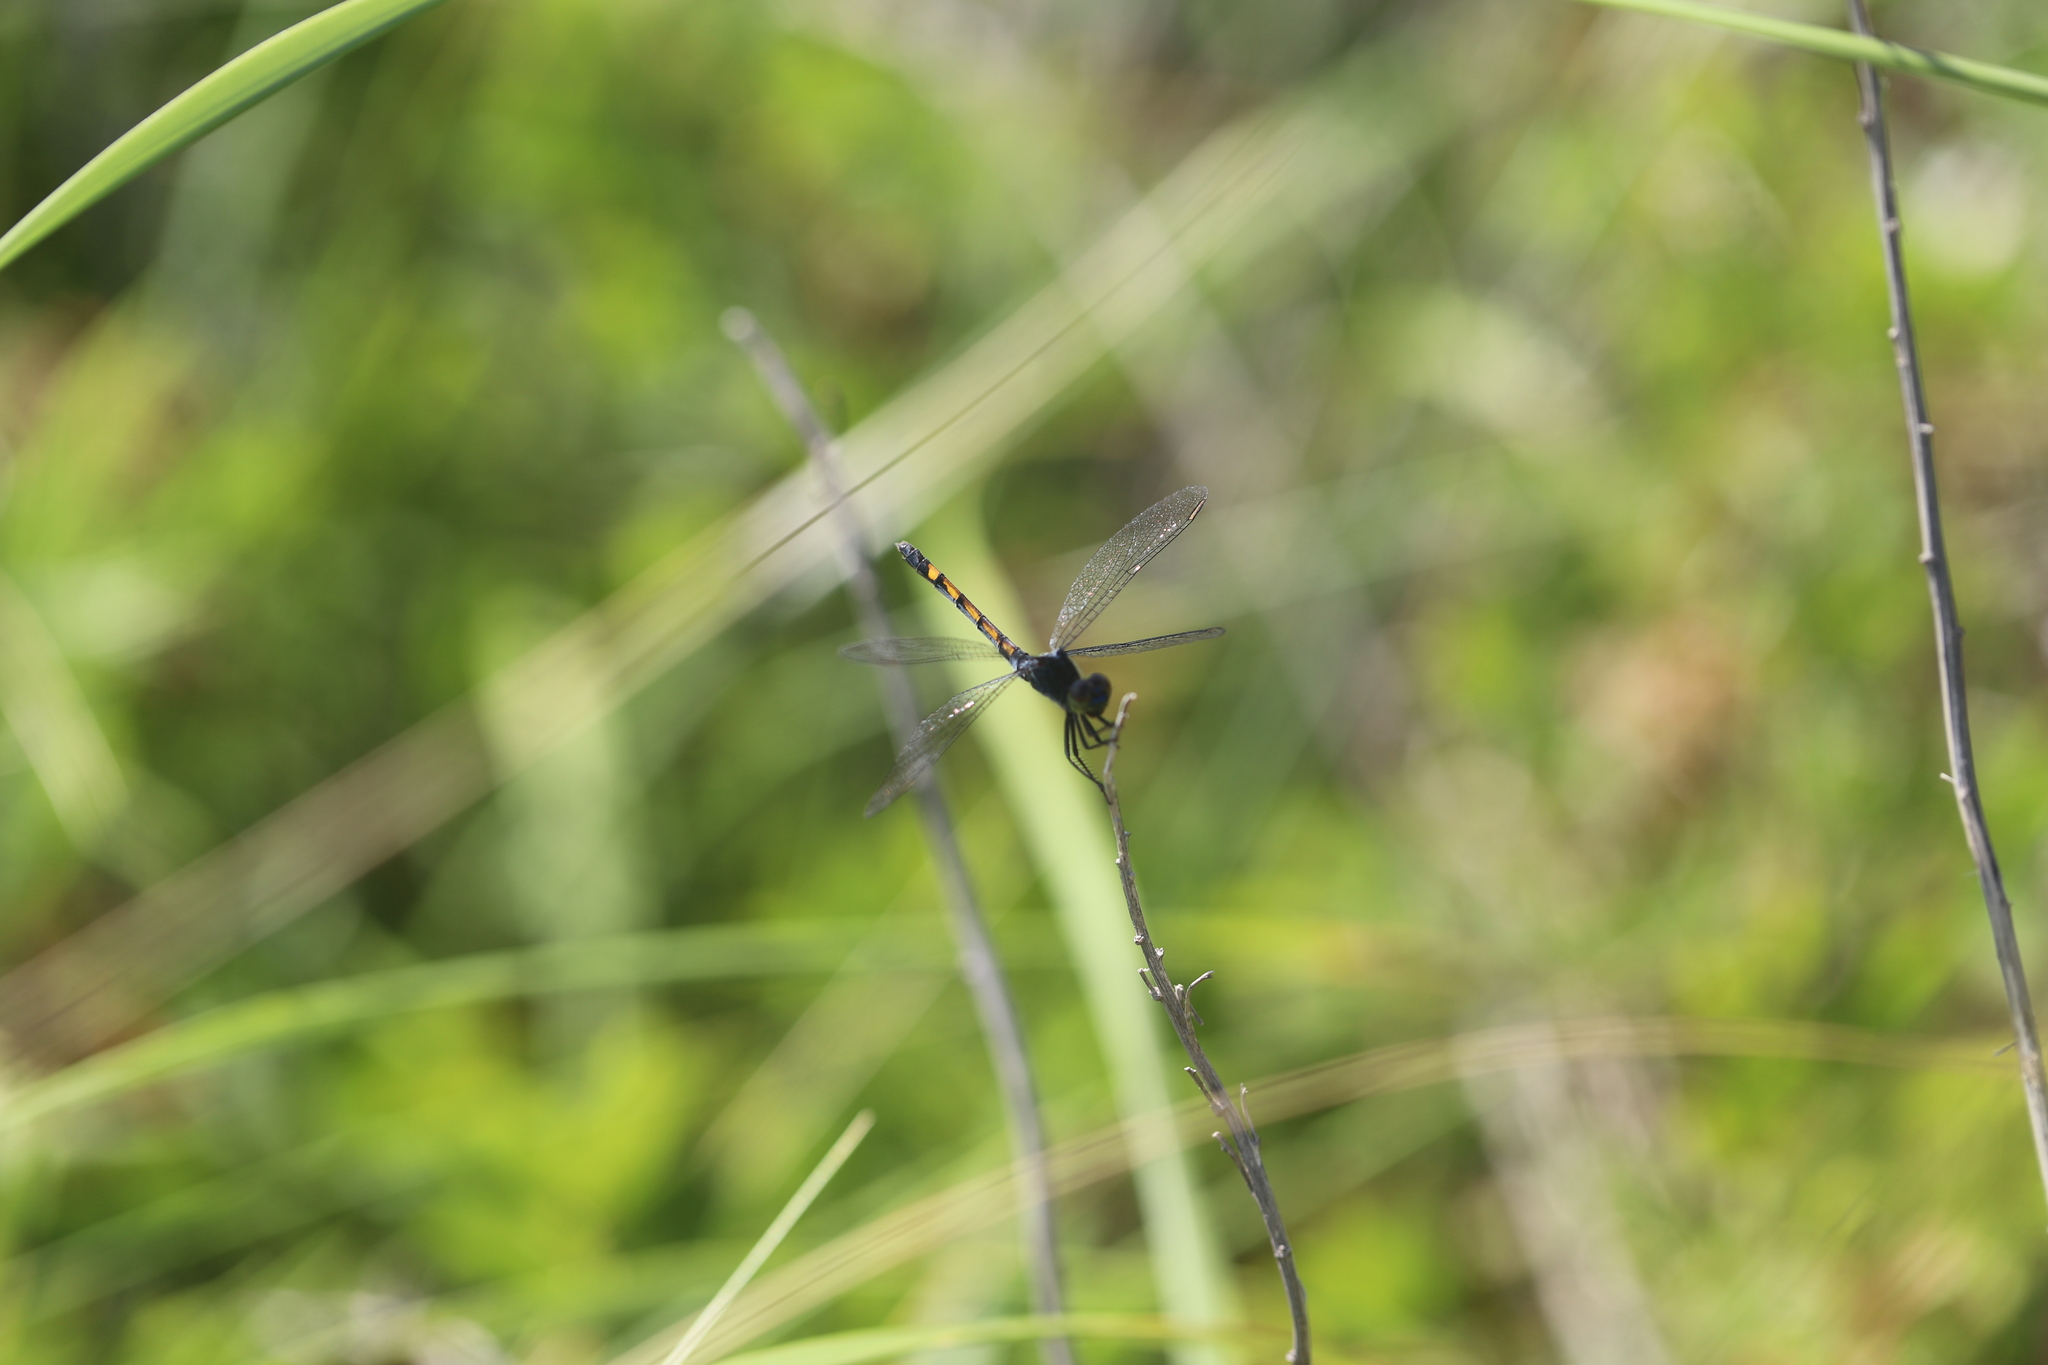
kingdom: Animalia
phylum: Arthropoda
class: Insecta
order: Odonata
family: Libellulidae
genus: Pachydiplax
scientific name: Pachydiplax longipennis
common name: Blue dasher
